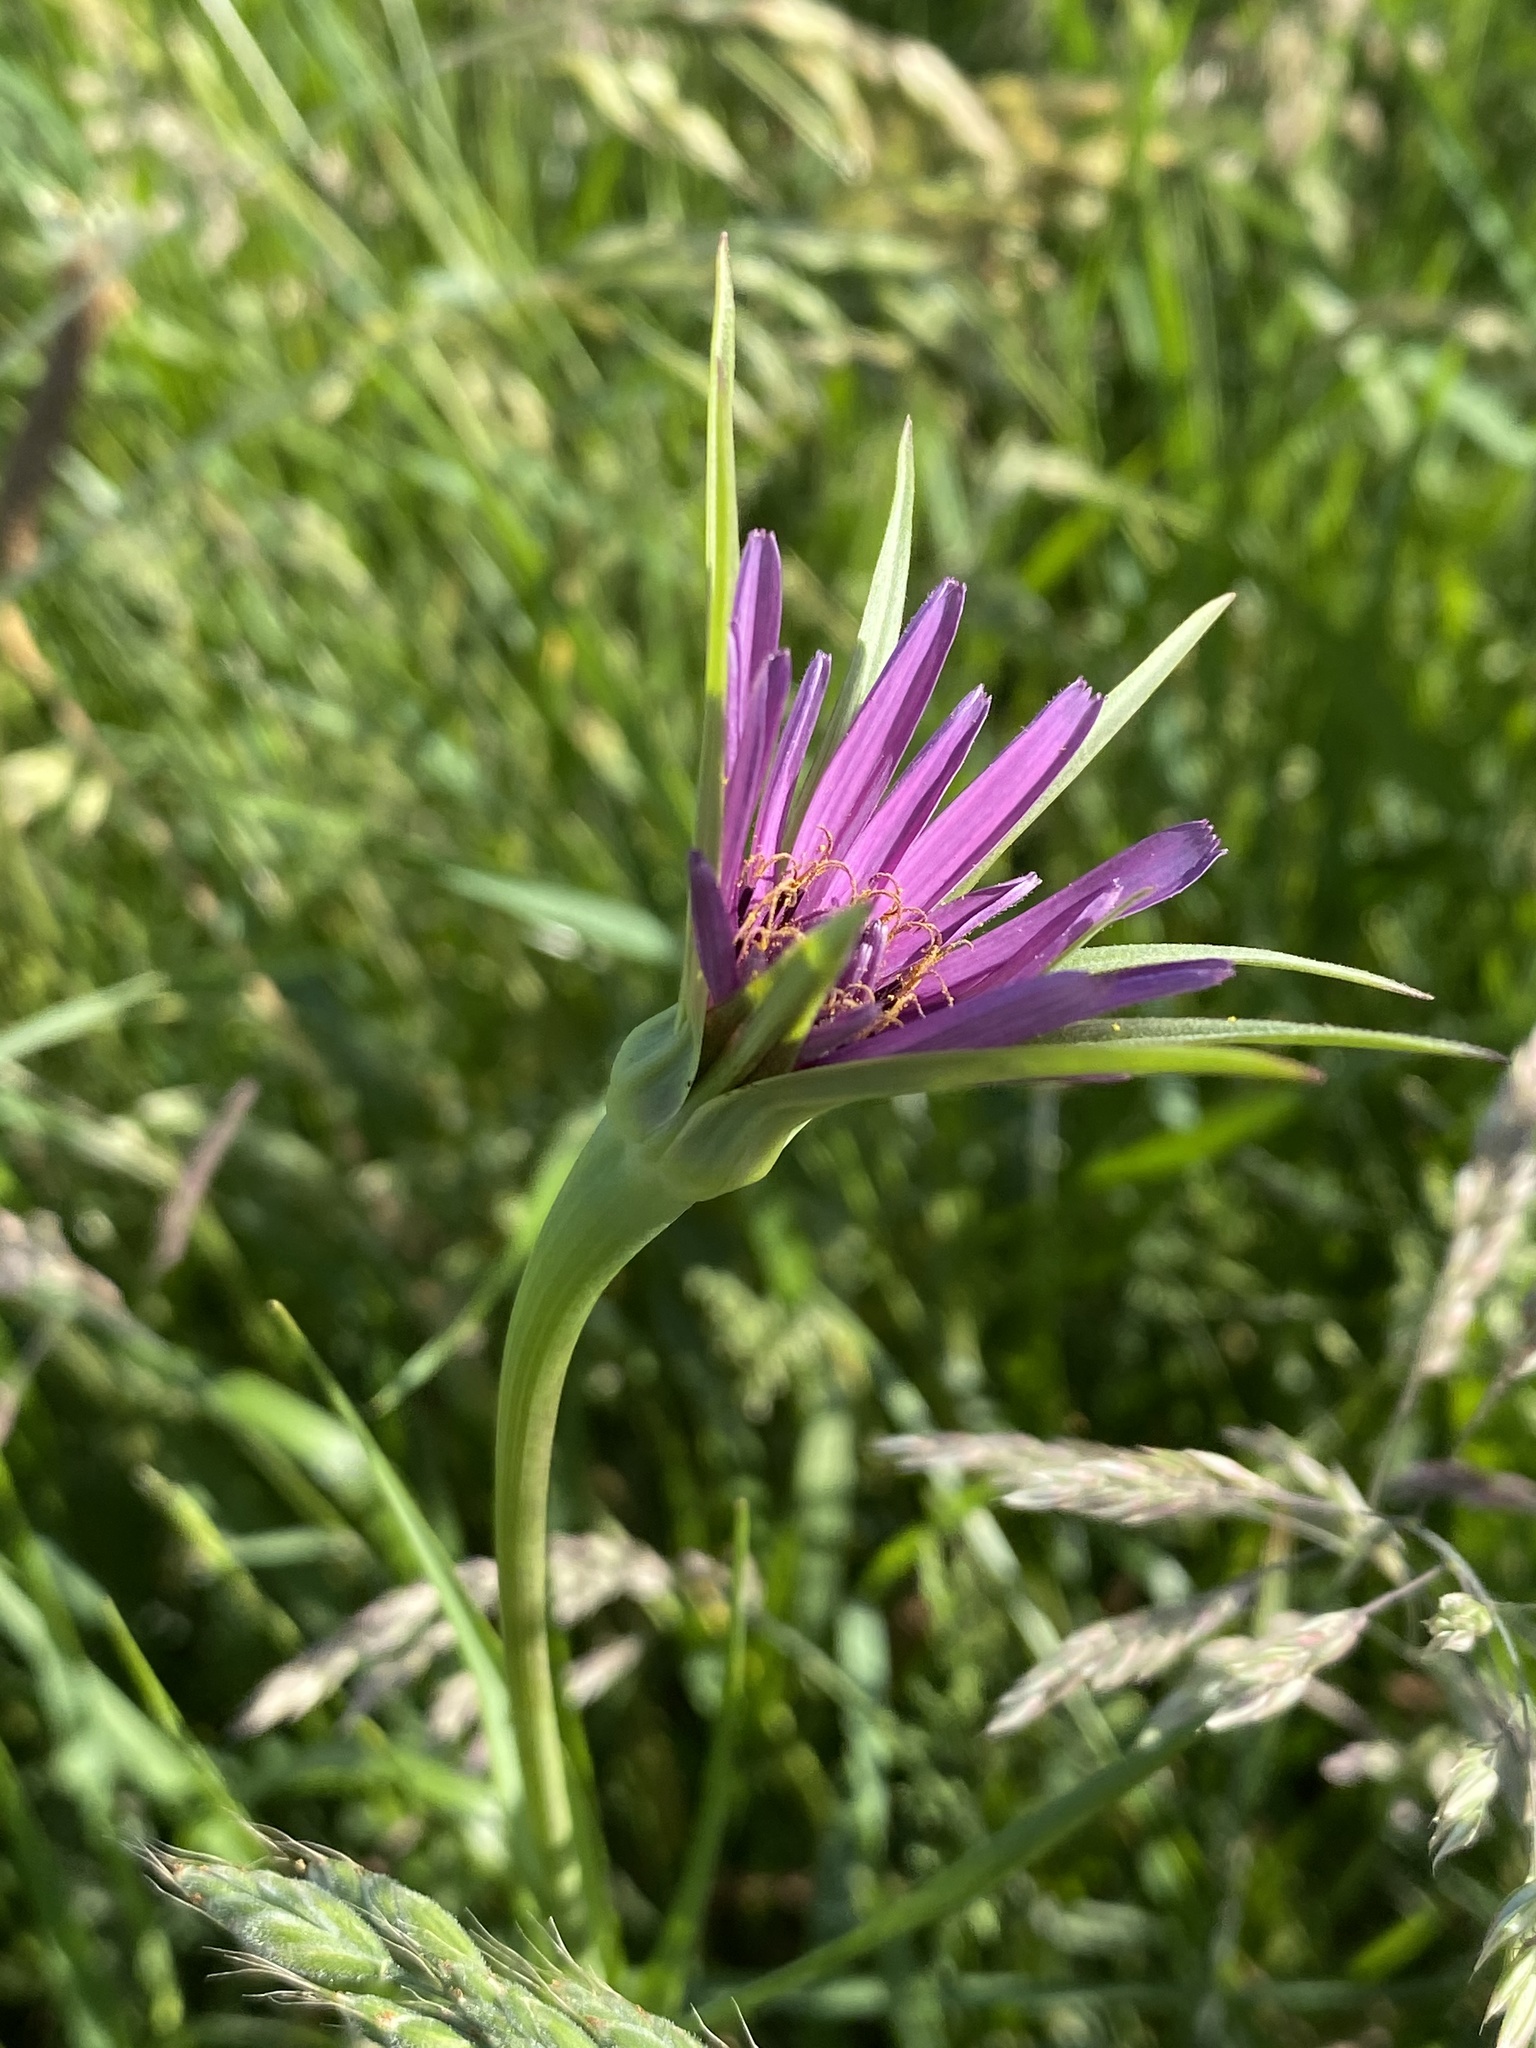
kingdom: Plantae
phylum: Tracheophyta
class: Magnoliopsida
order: Asterales
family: Asteraceae
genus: Tragopogon
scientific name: Tragopogon porrifolius
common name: Salsify
